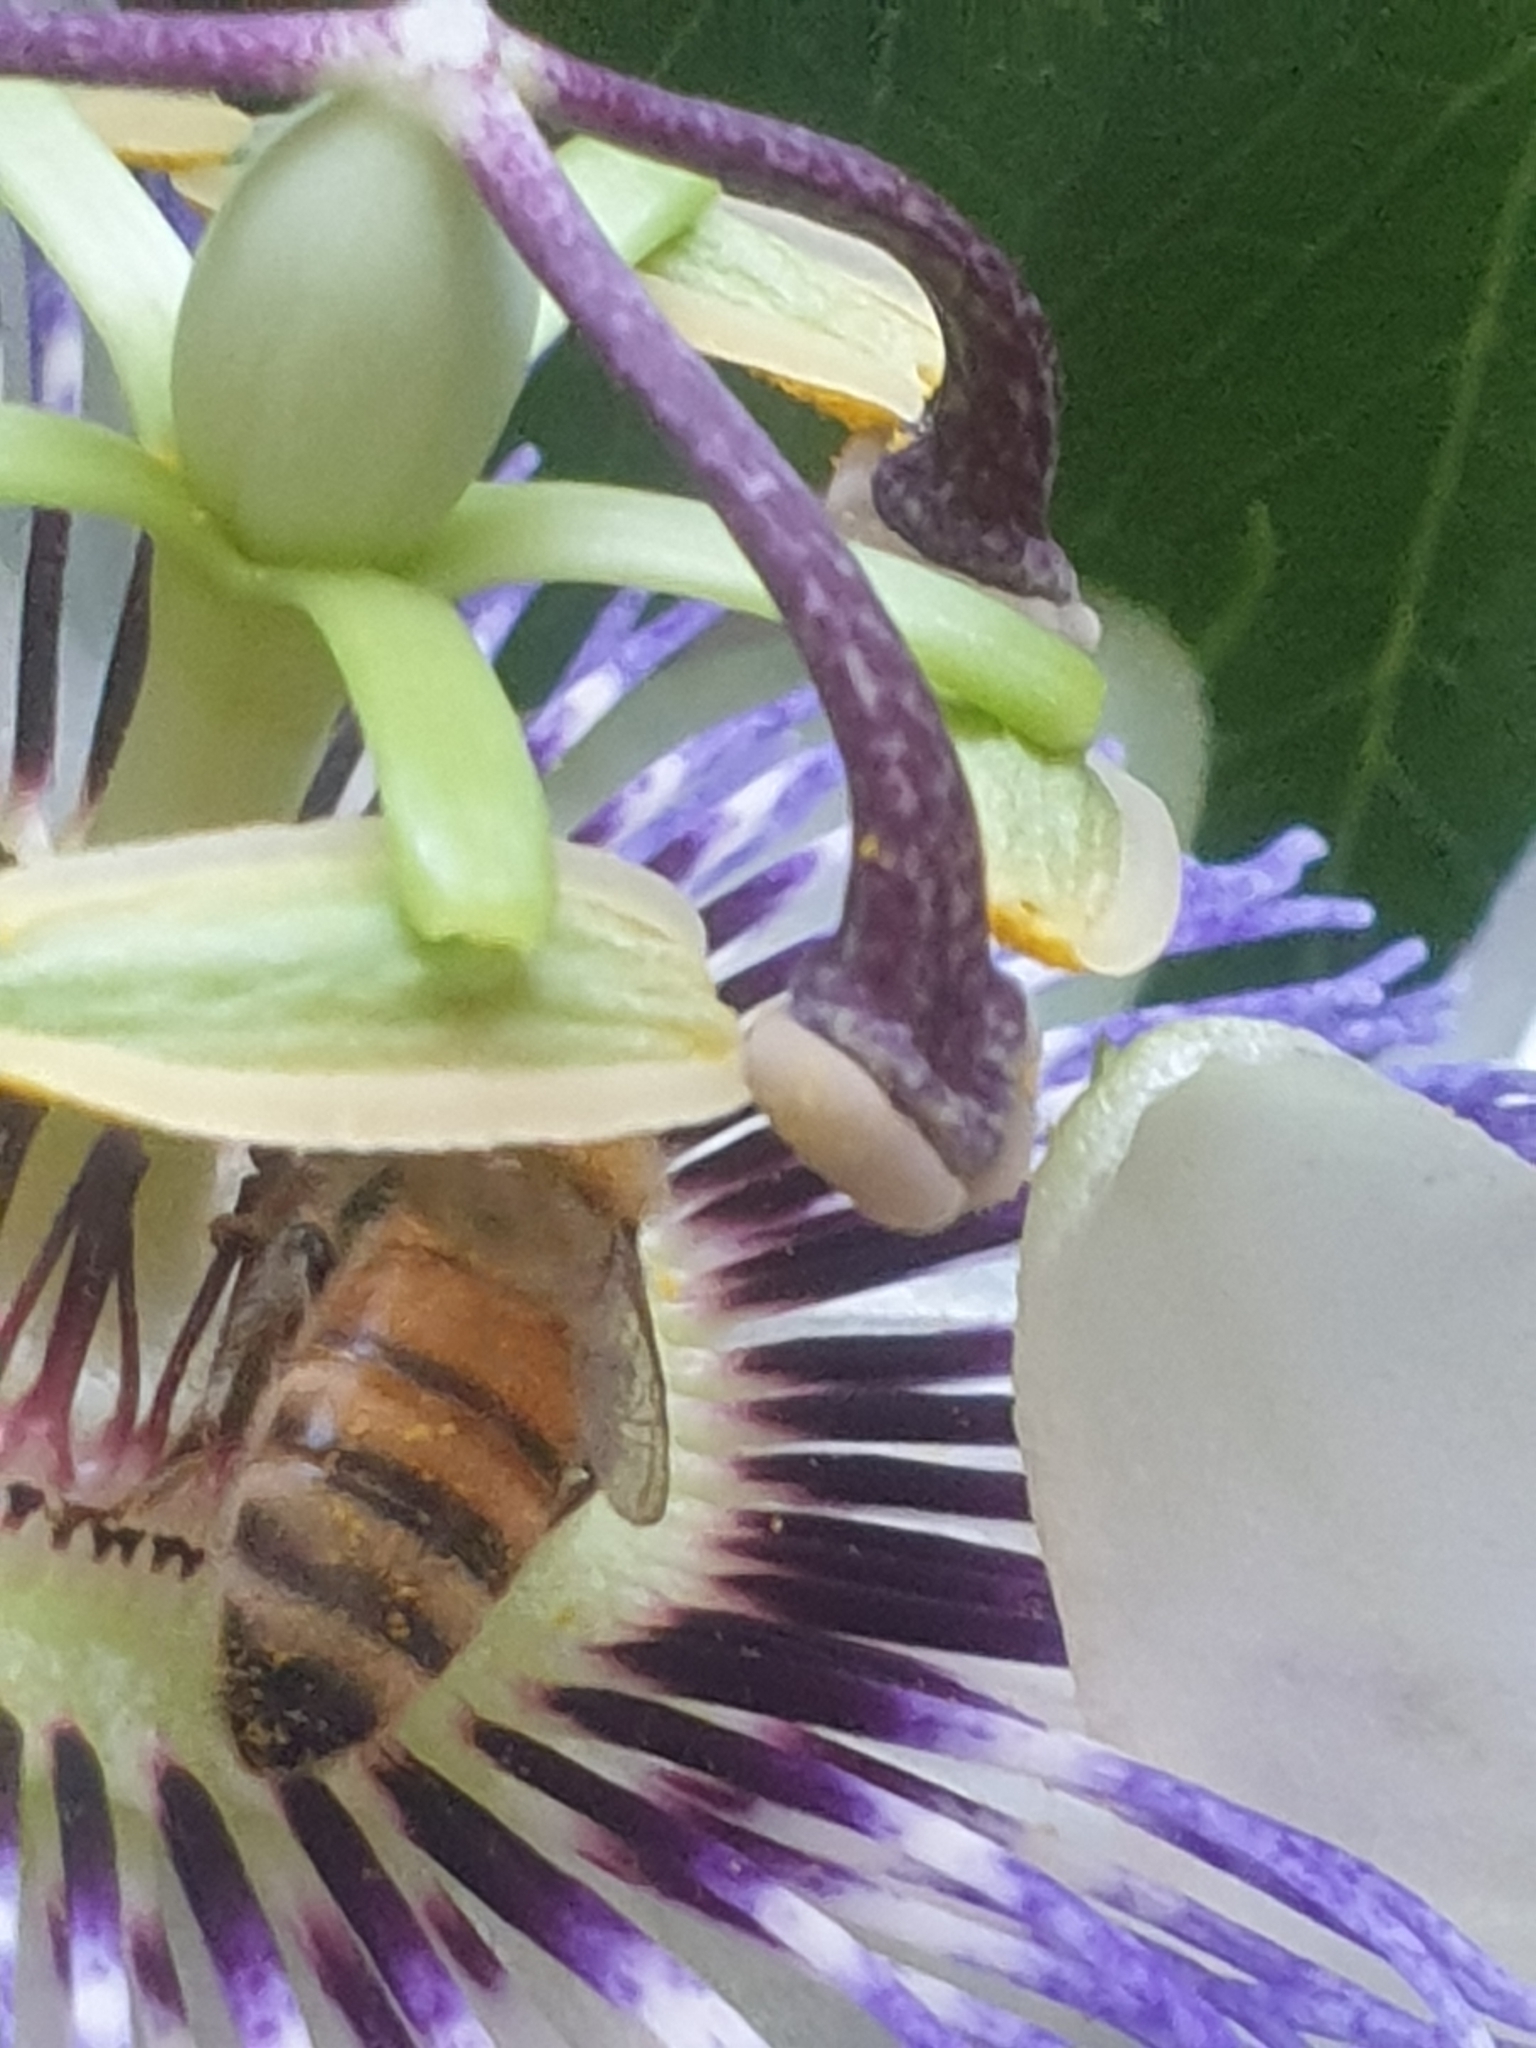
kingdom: Animalia
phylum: Arthropoda
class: Insecta
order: Hymenoptera
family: Apidae
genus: Apis
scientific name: Apis mellifera
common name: Honey bee
